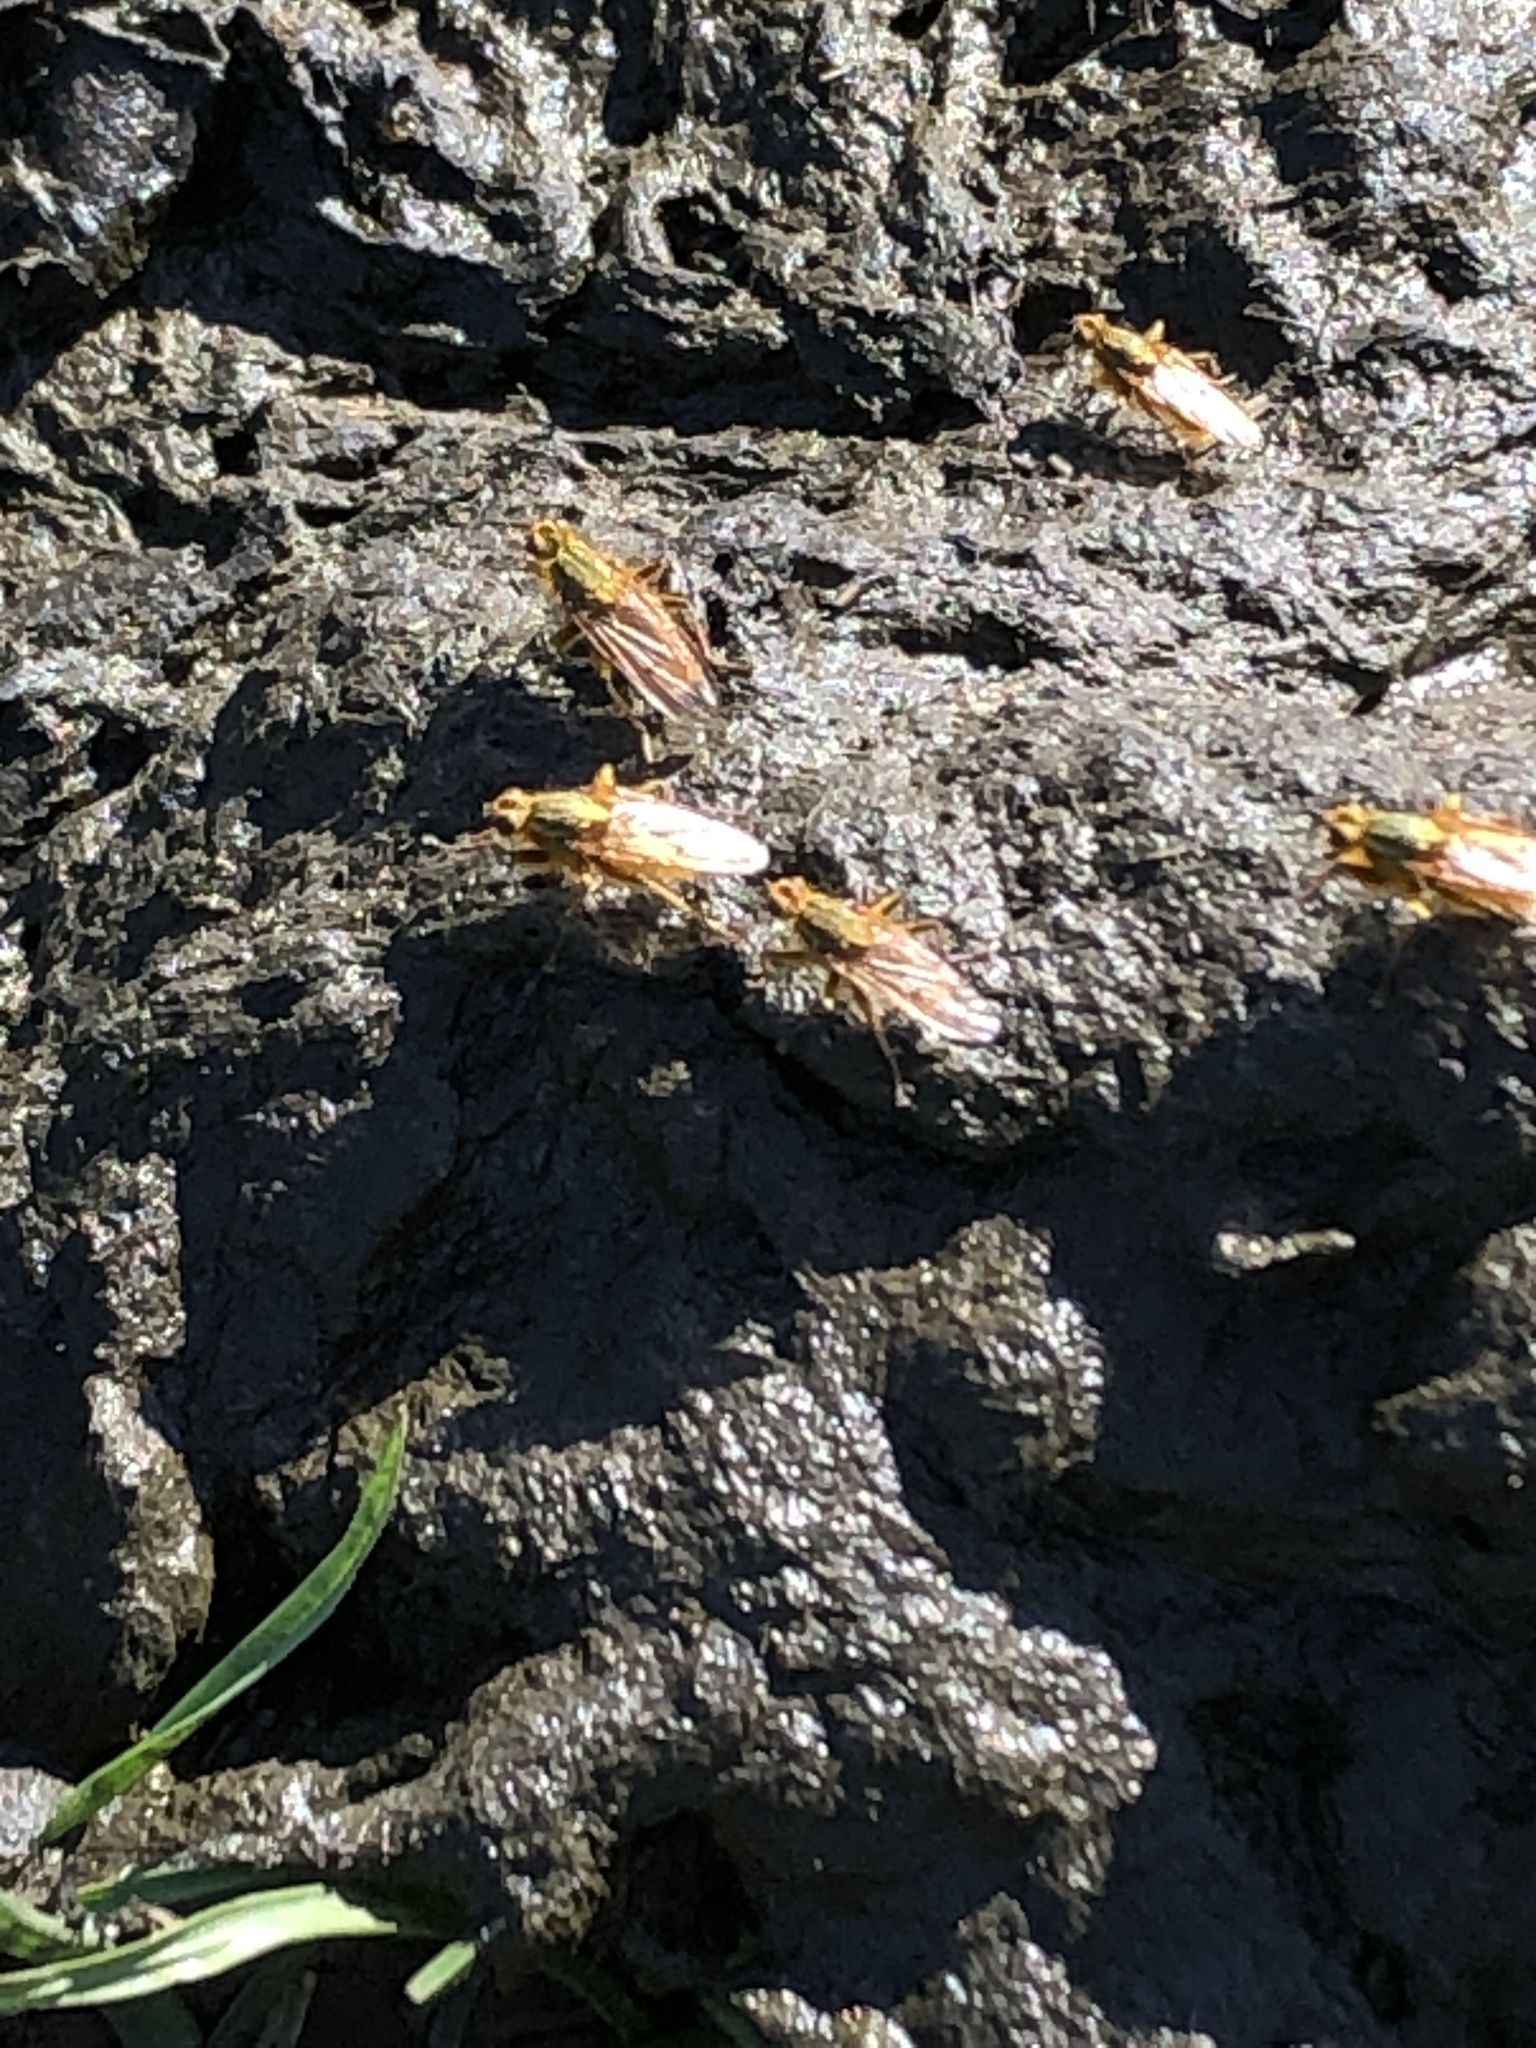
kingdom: Animalia
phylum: Arthropoda
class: Insecta
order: Diptera
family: Scathophagidae
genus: Scathophaga
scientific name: Scathophaga stercoraria
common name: Yellow dung fly
